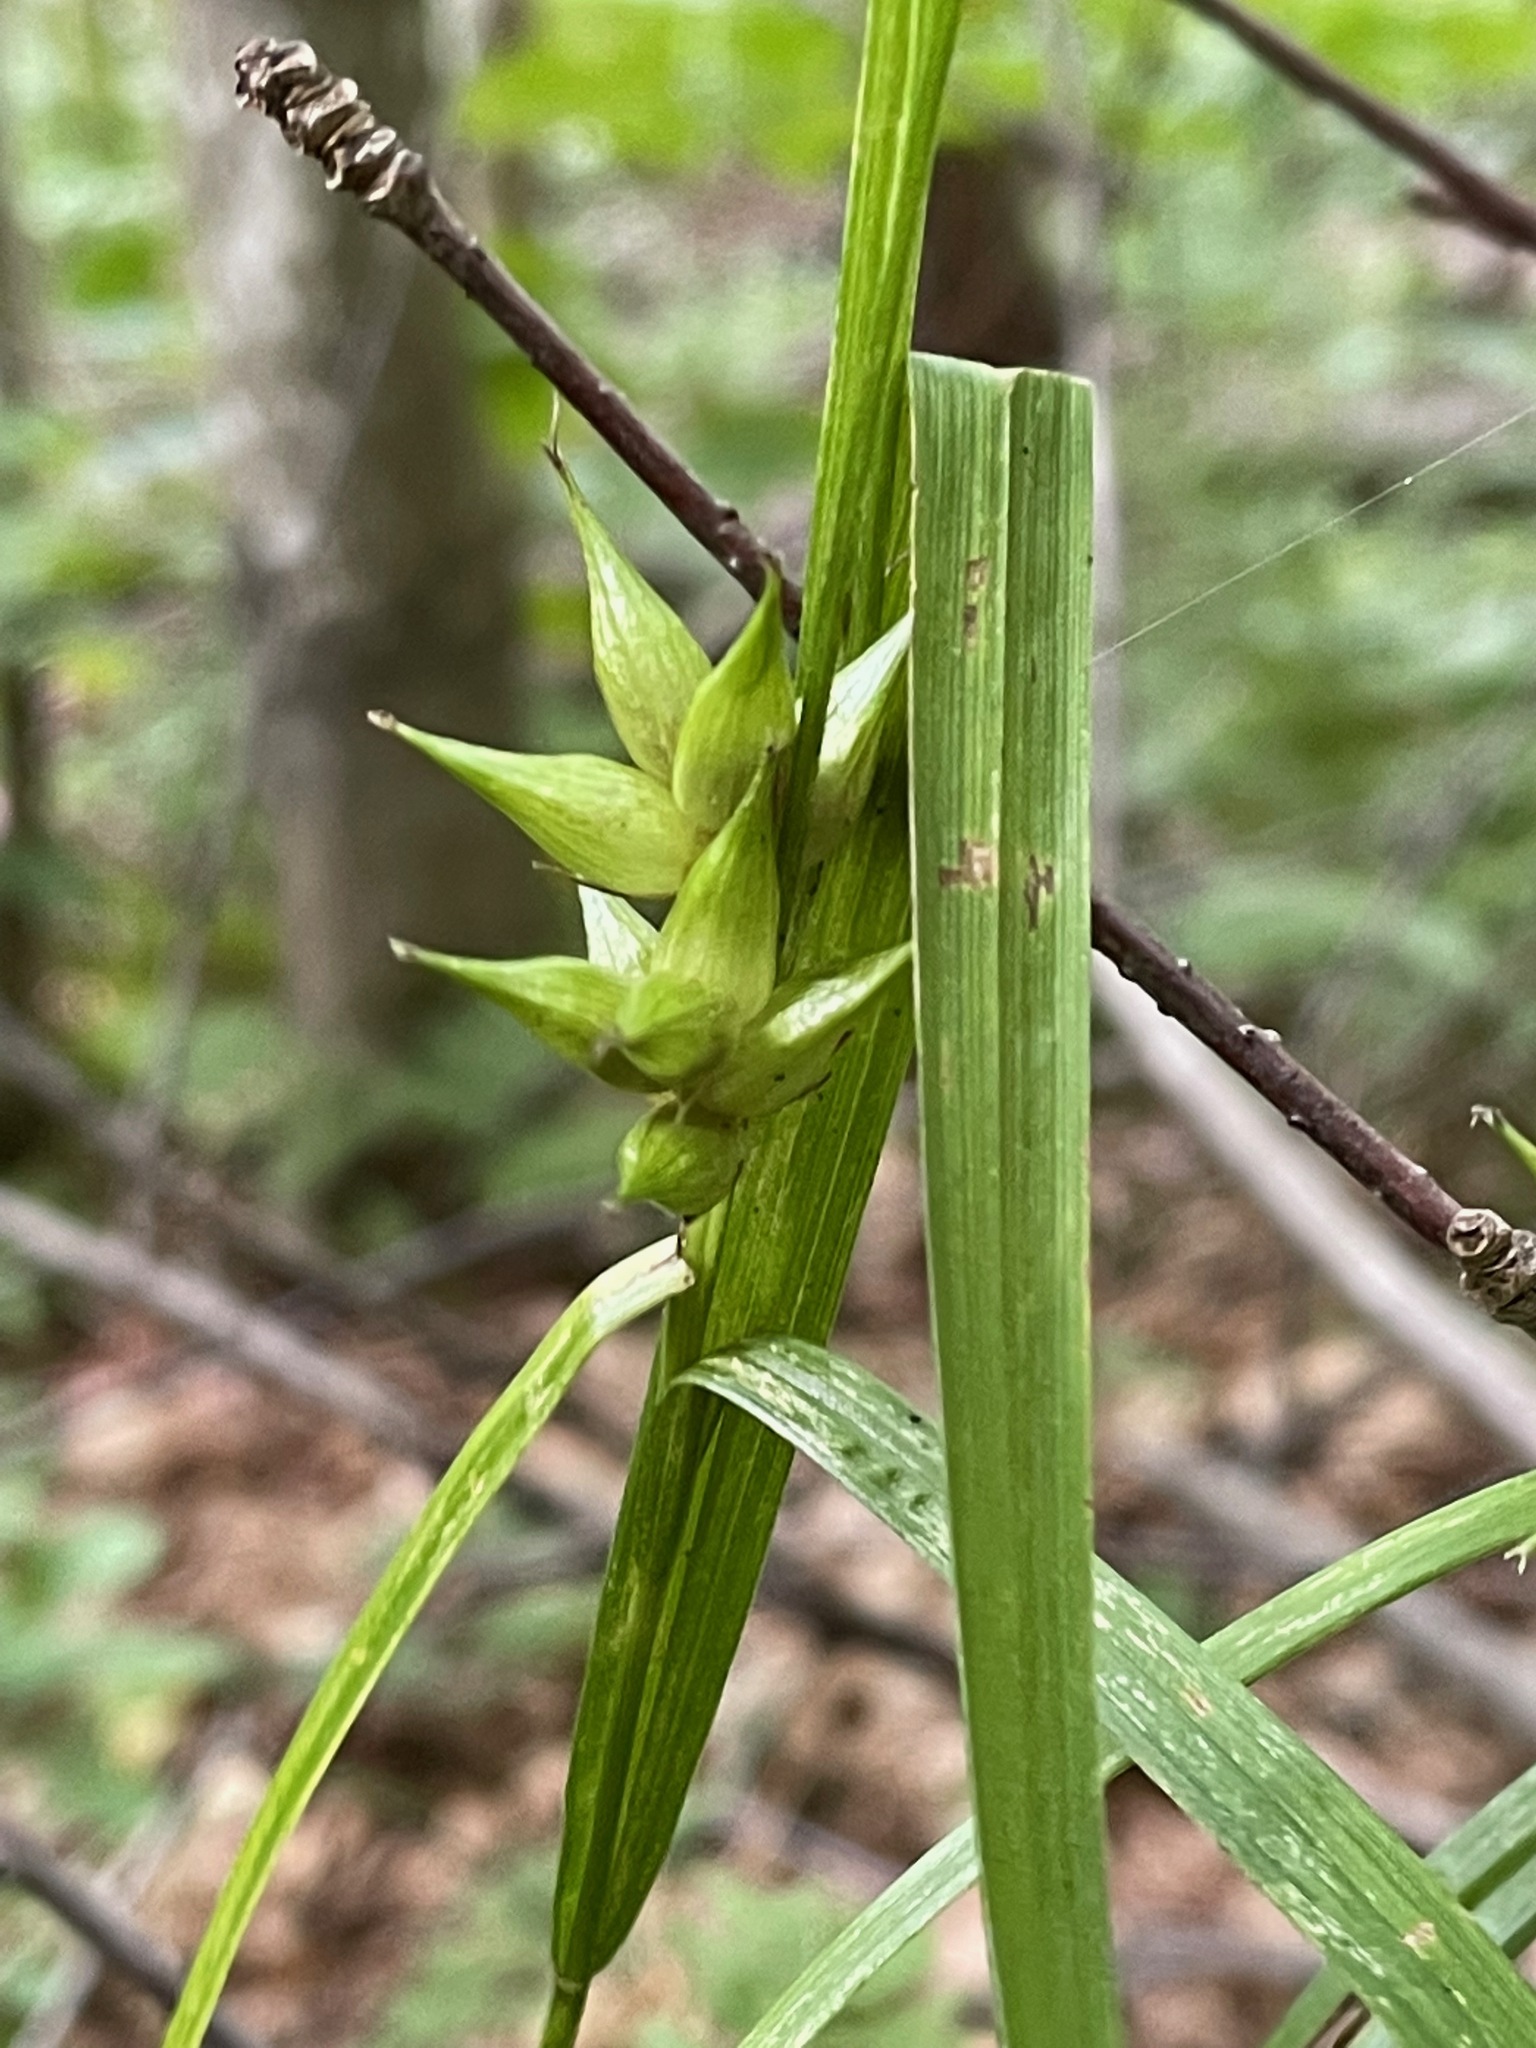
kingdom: Plantae
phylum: Tracheophyta
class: Liliopsida
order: Poales
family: Cyperaceae
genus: Carex
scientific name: Carex intumescens
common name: Greater bladder sedge
